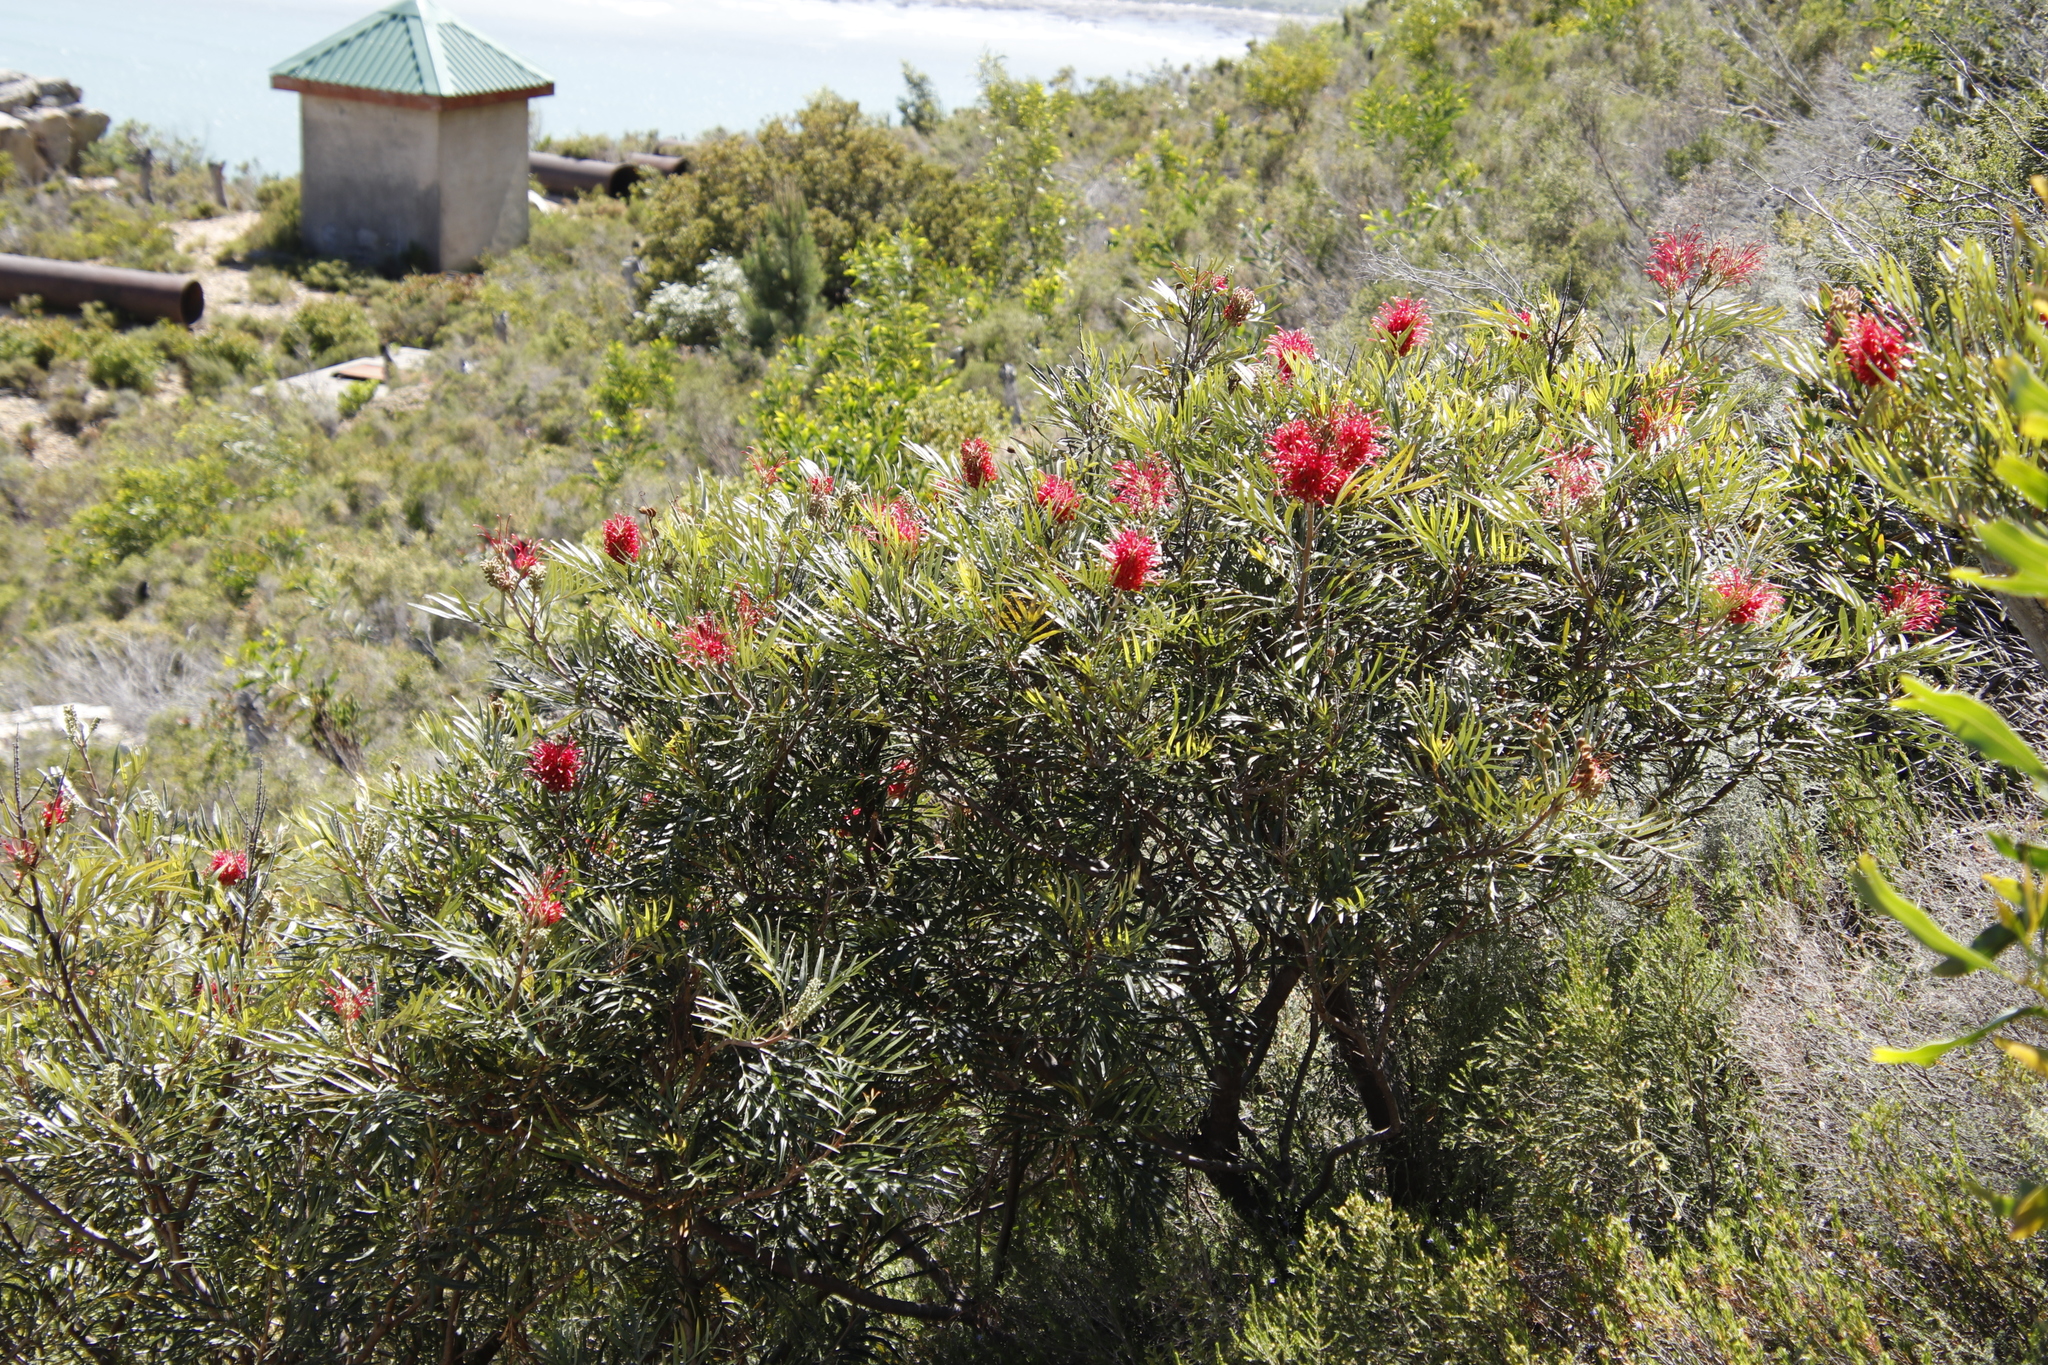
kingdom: Plantae
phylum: Tracheophyta
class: Magnoliopsida
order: Proteales
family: Proteaceae
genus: Grevillea
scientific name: Grevillea banksii
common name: Kahili flower
